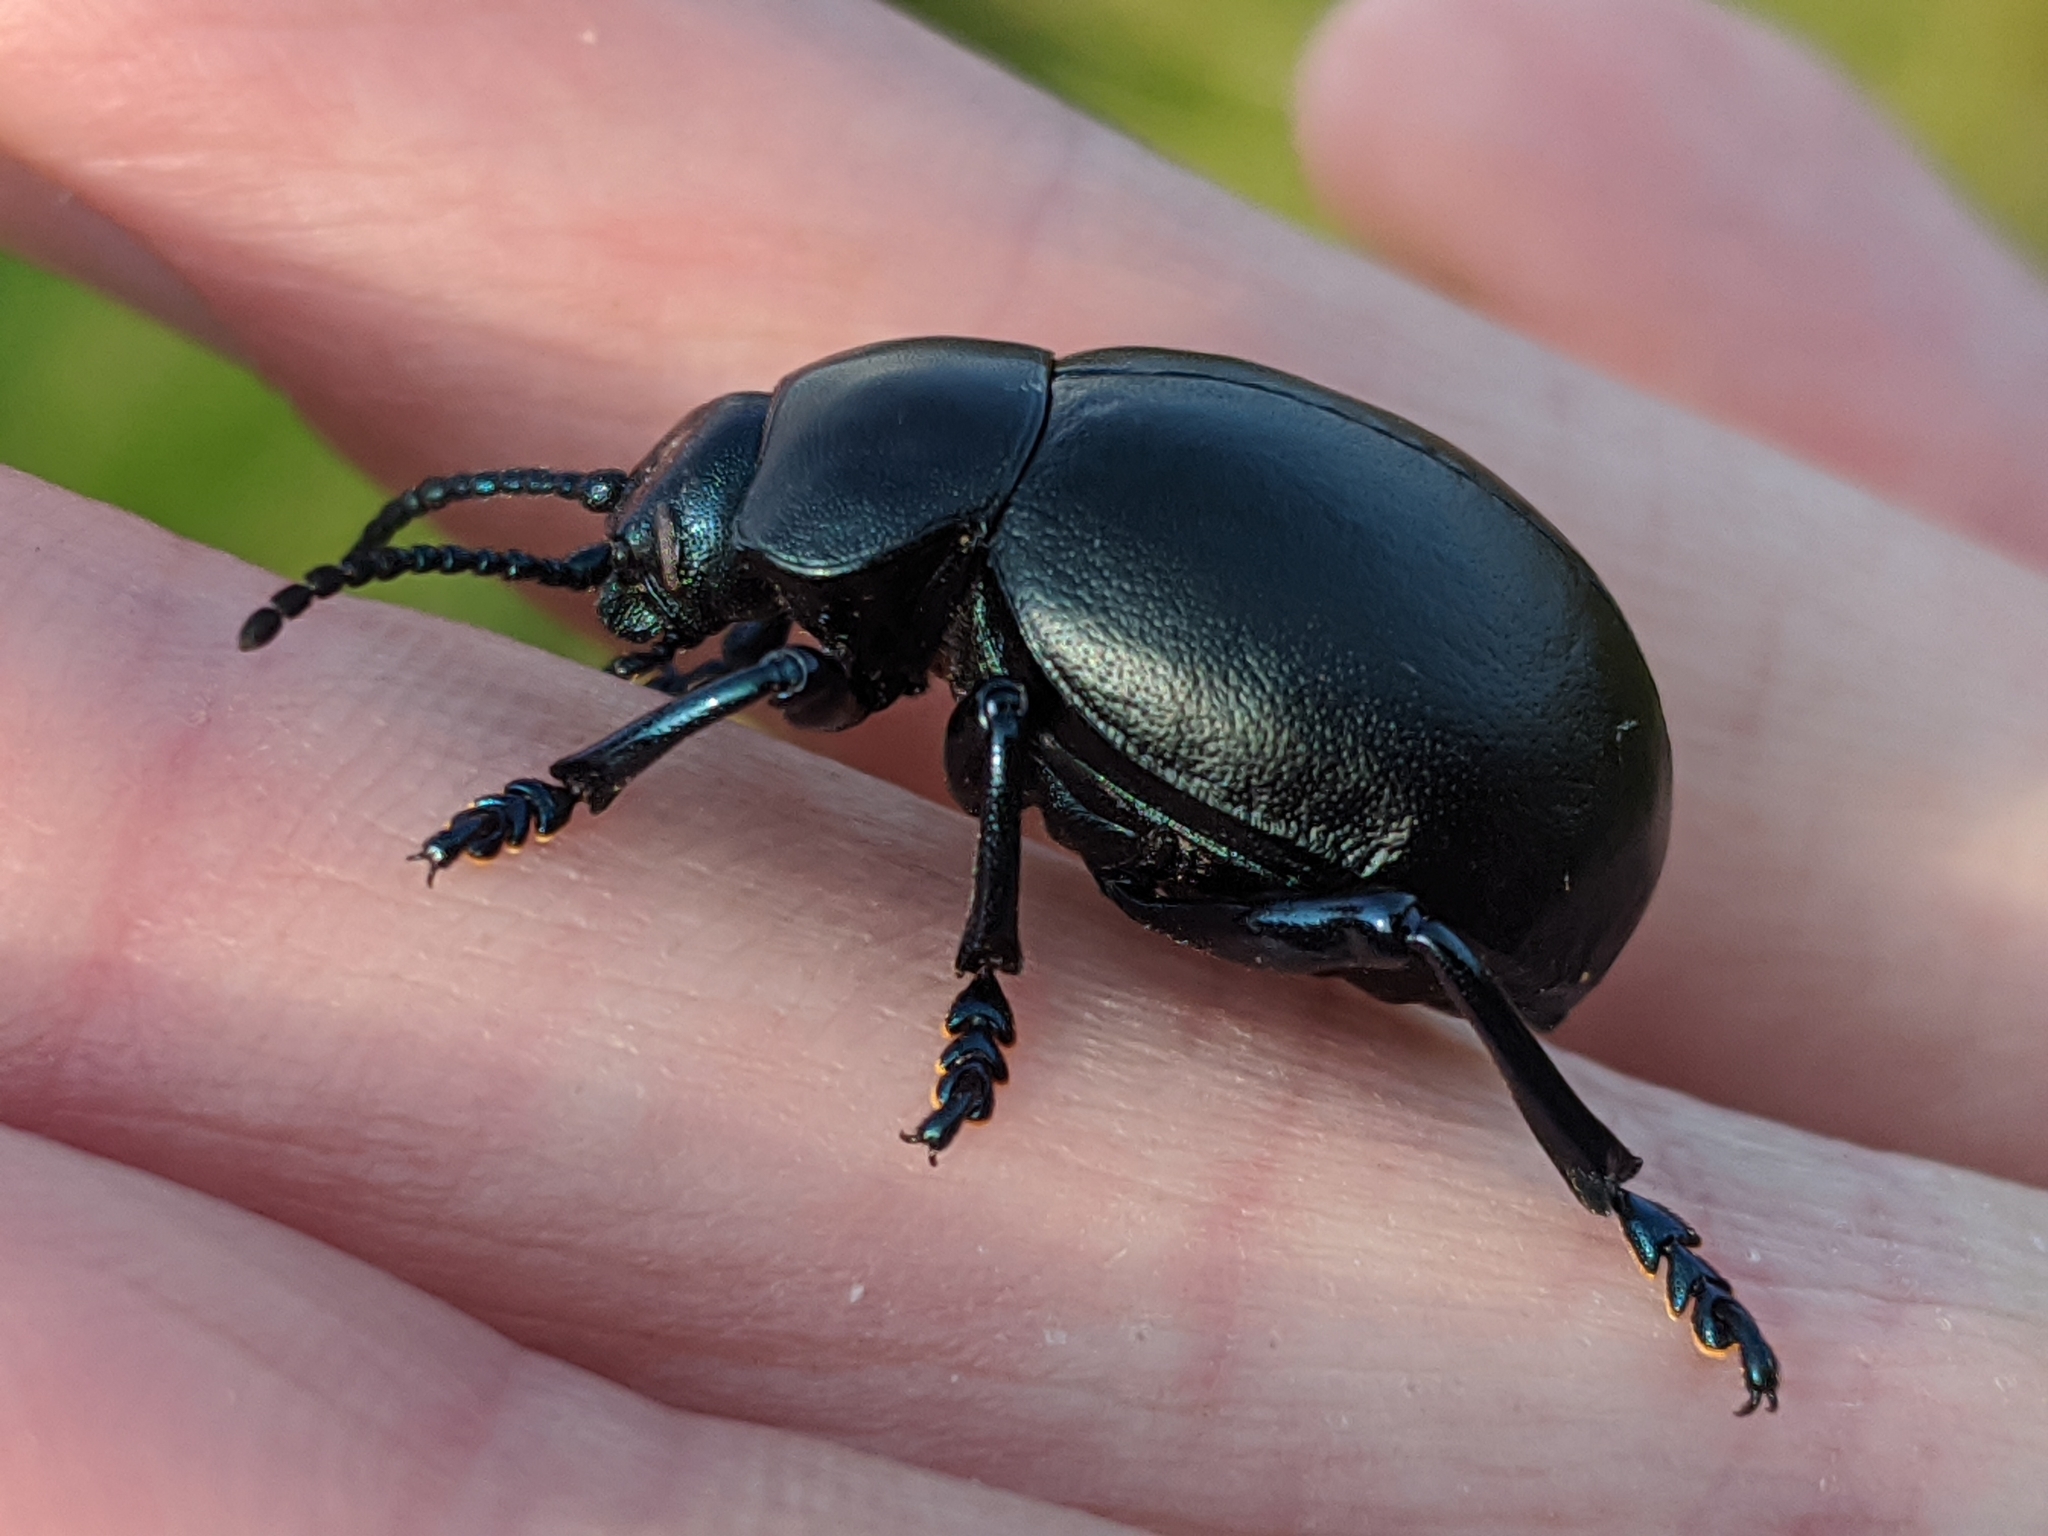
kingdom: Animalia
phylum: Arthropoda
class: Insecta
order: Coleoptera
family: Chrysomelidae
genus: Timarcha
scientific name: Timarcha tenebricosa
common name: Bloody-nosed beetle
